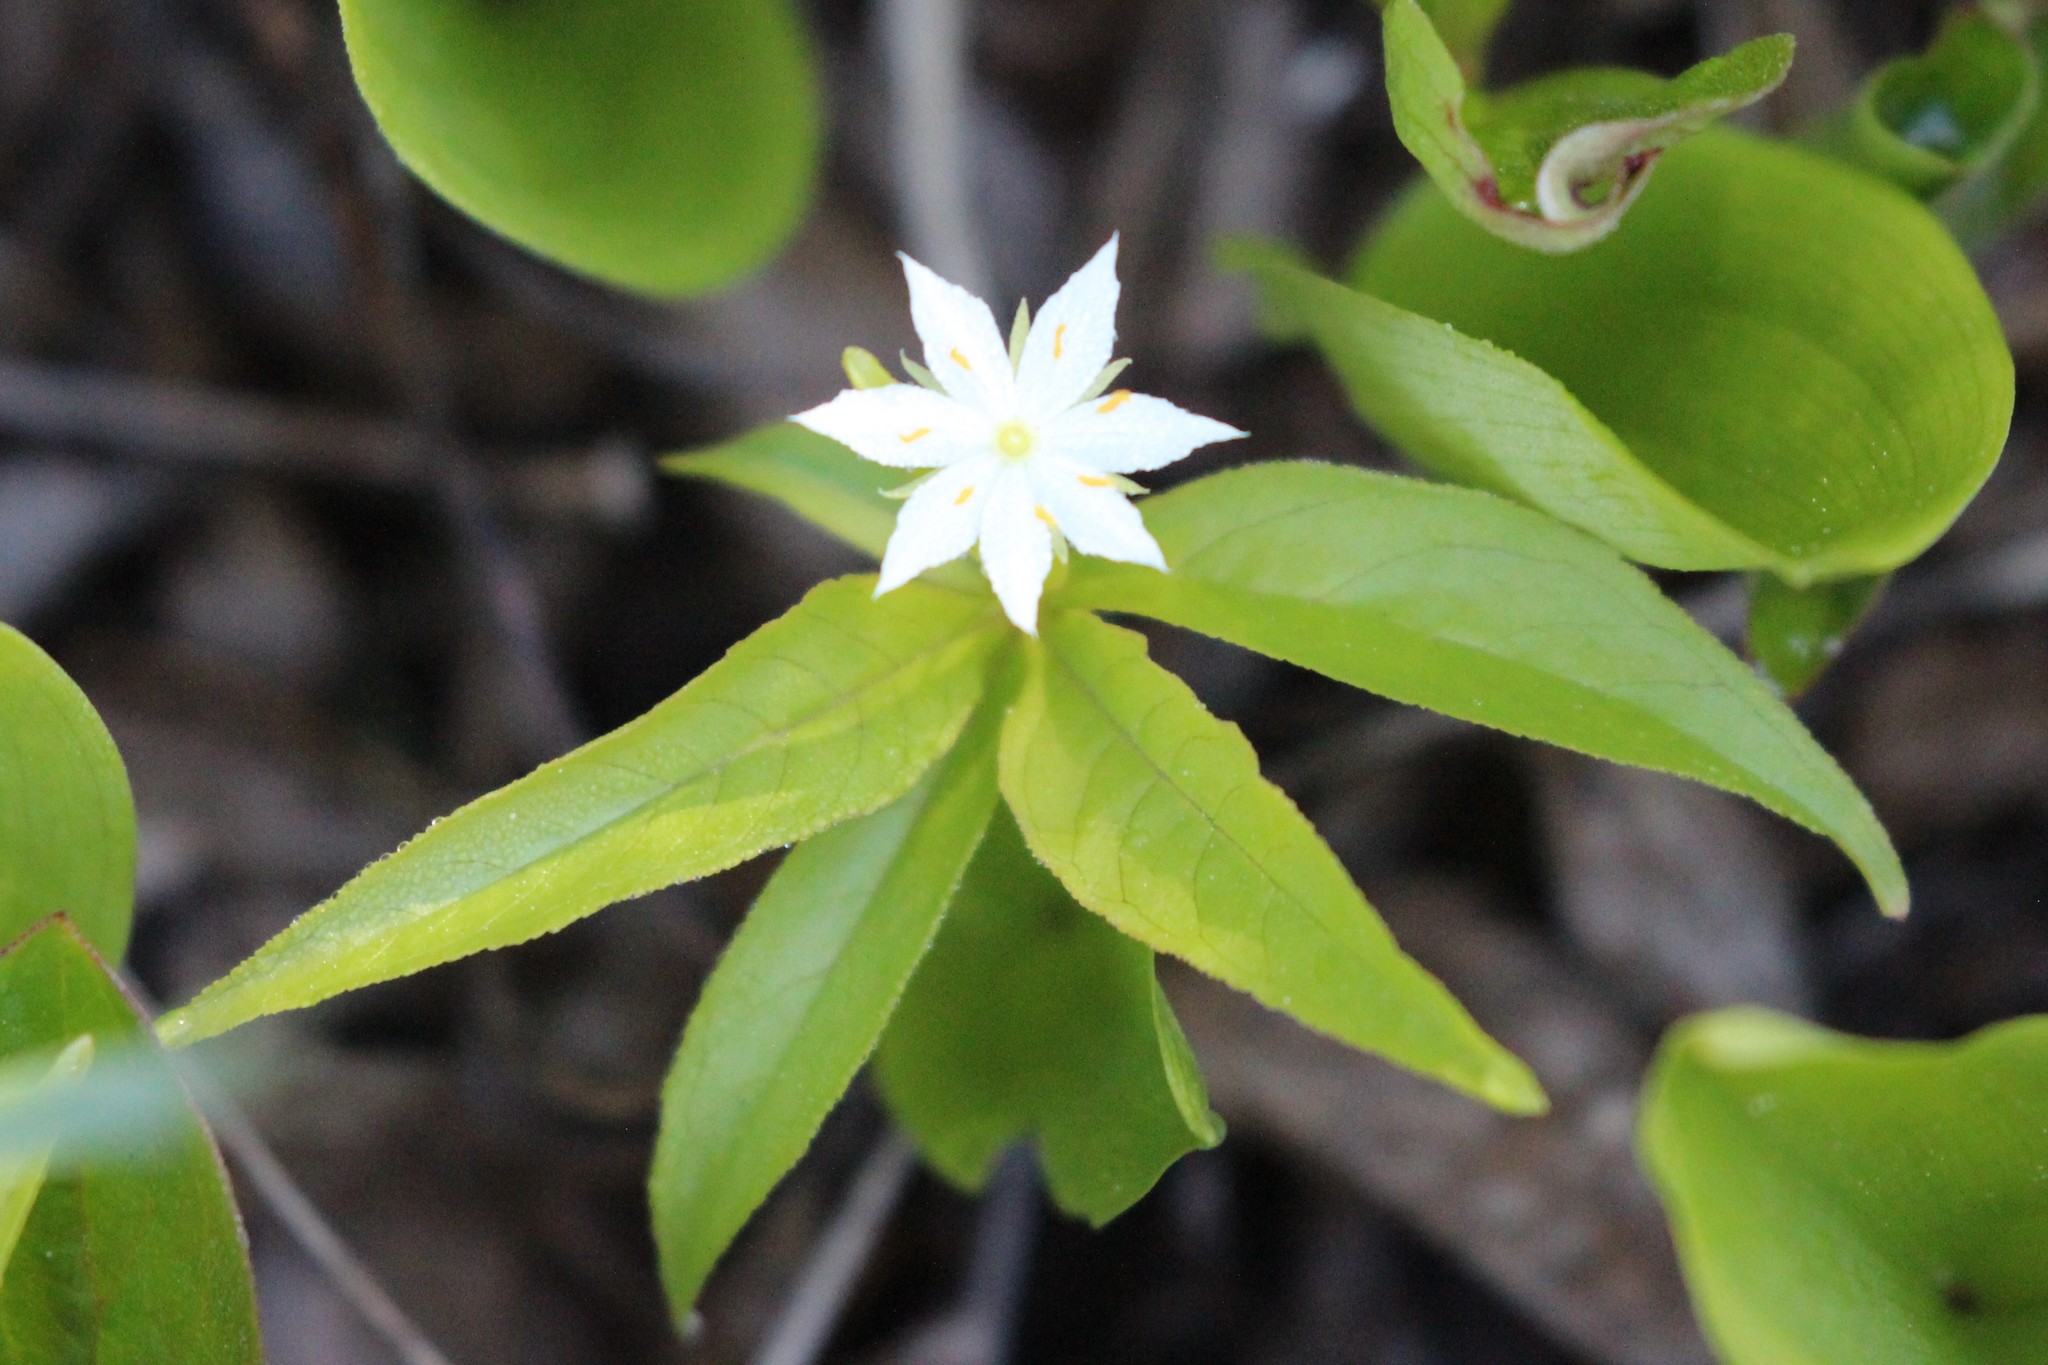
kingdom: Plantae
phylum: Tracheophyta
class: Magnoliopsida
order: Ericales
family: Primulaceae
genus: Lysimachia
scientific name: Lysimachia borealis
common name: American starflower
